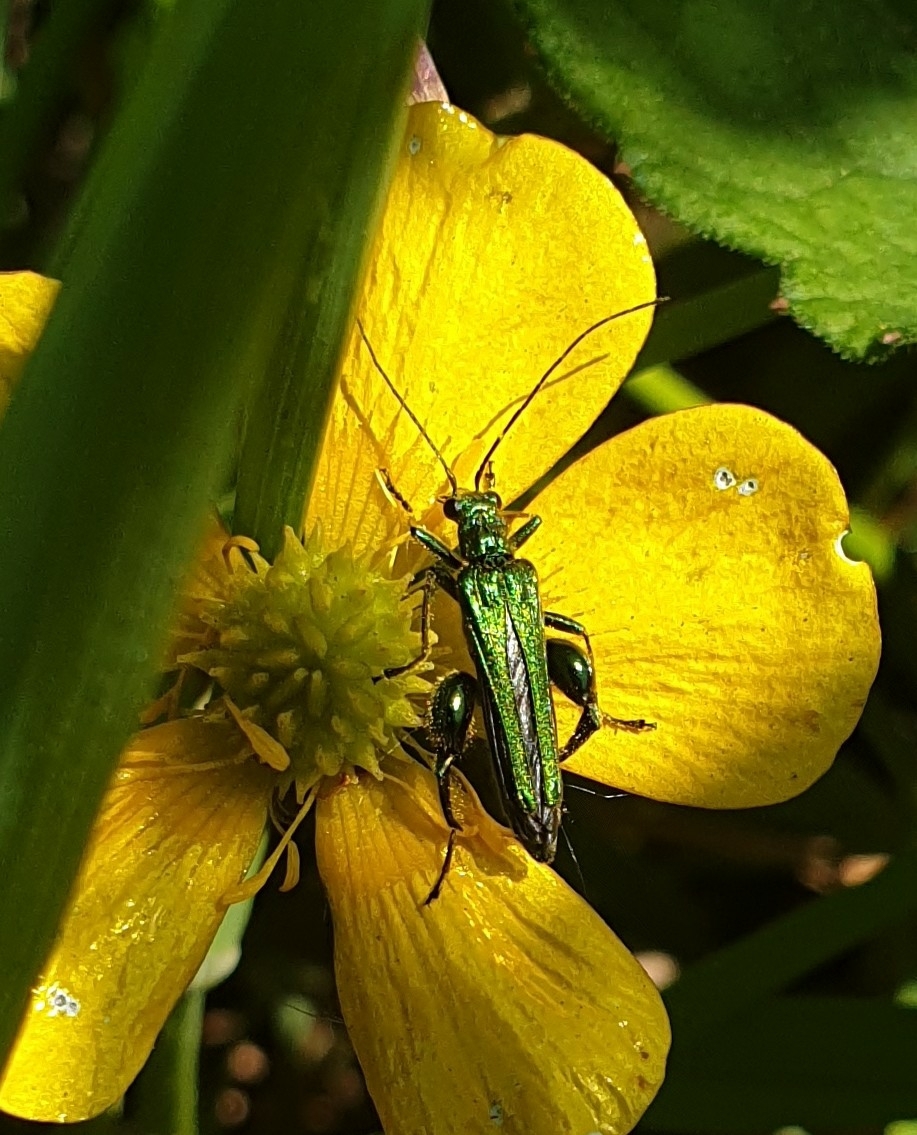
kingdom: Animalia
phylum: Arthropoda
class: Insecta
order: Coleoptera
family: Oedemeridae
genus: Oedemera
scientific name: Oedemera nobilis
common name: Swollen-thighed beetle
